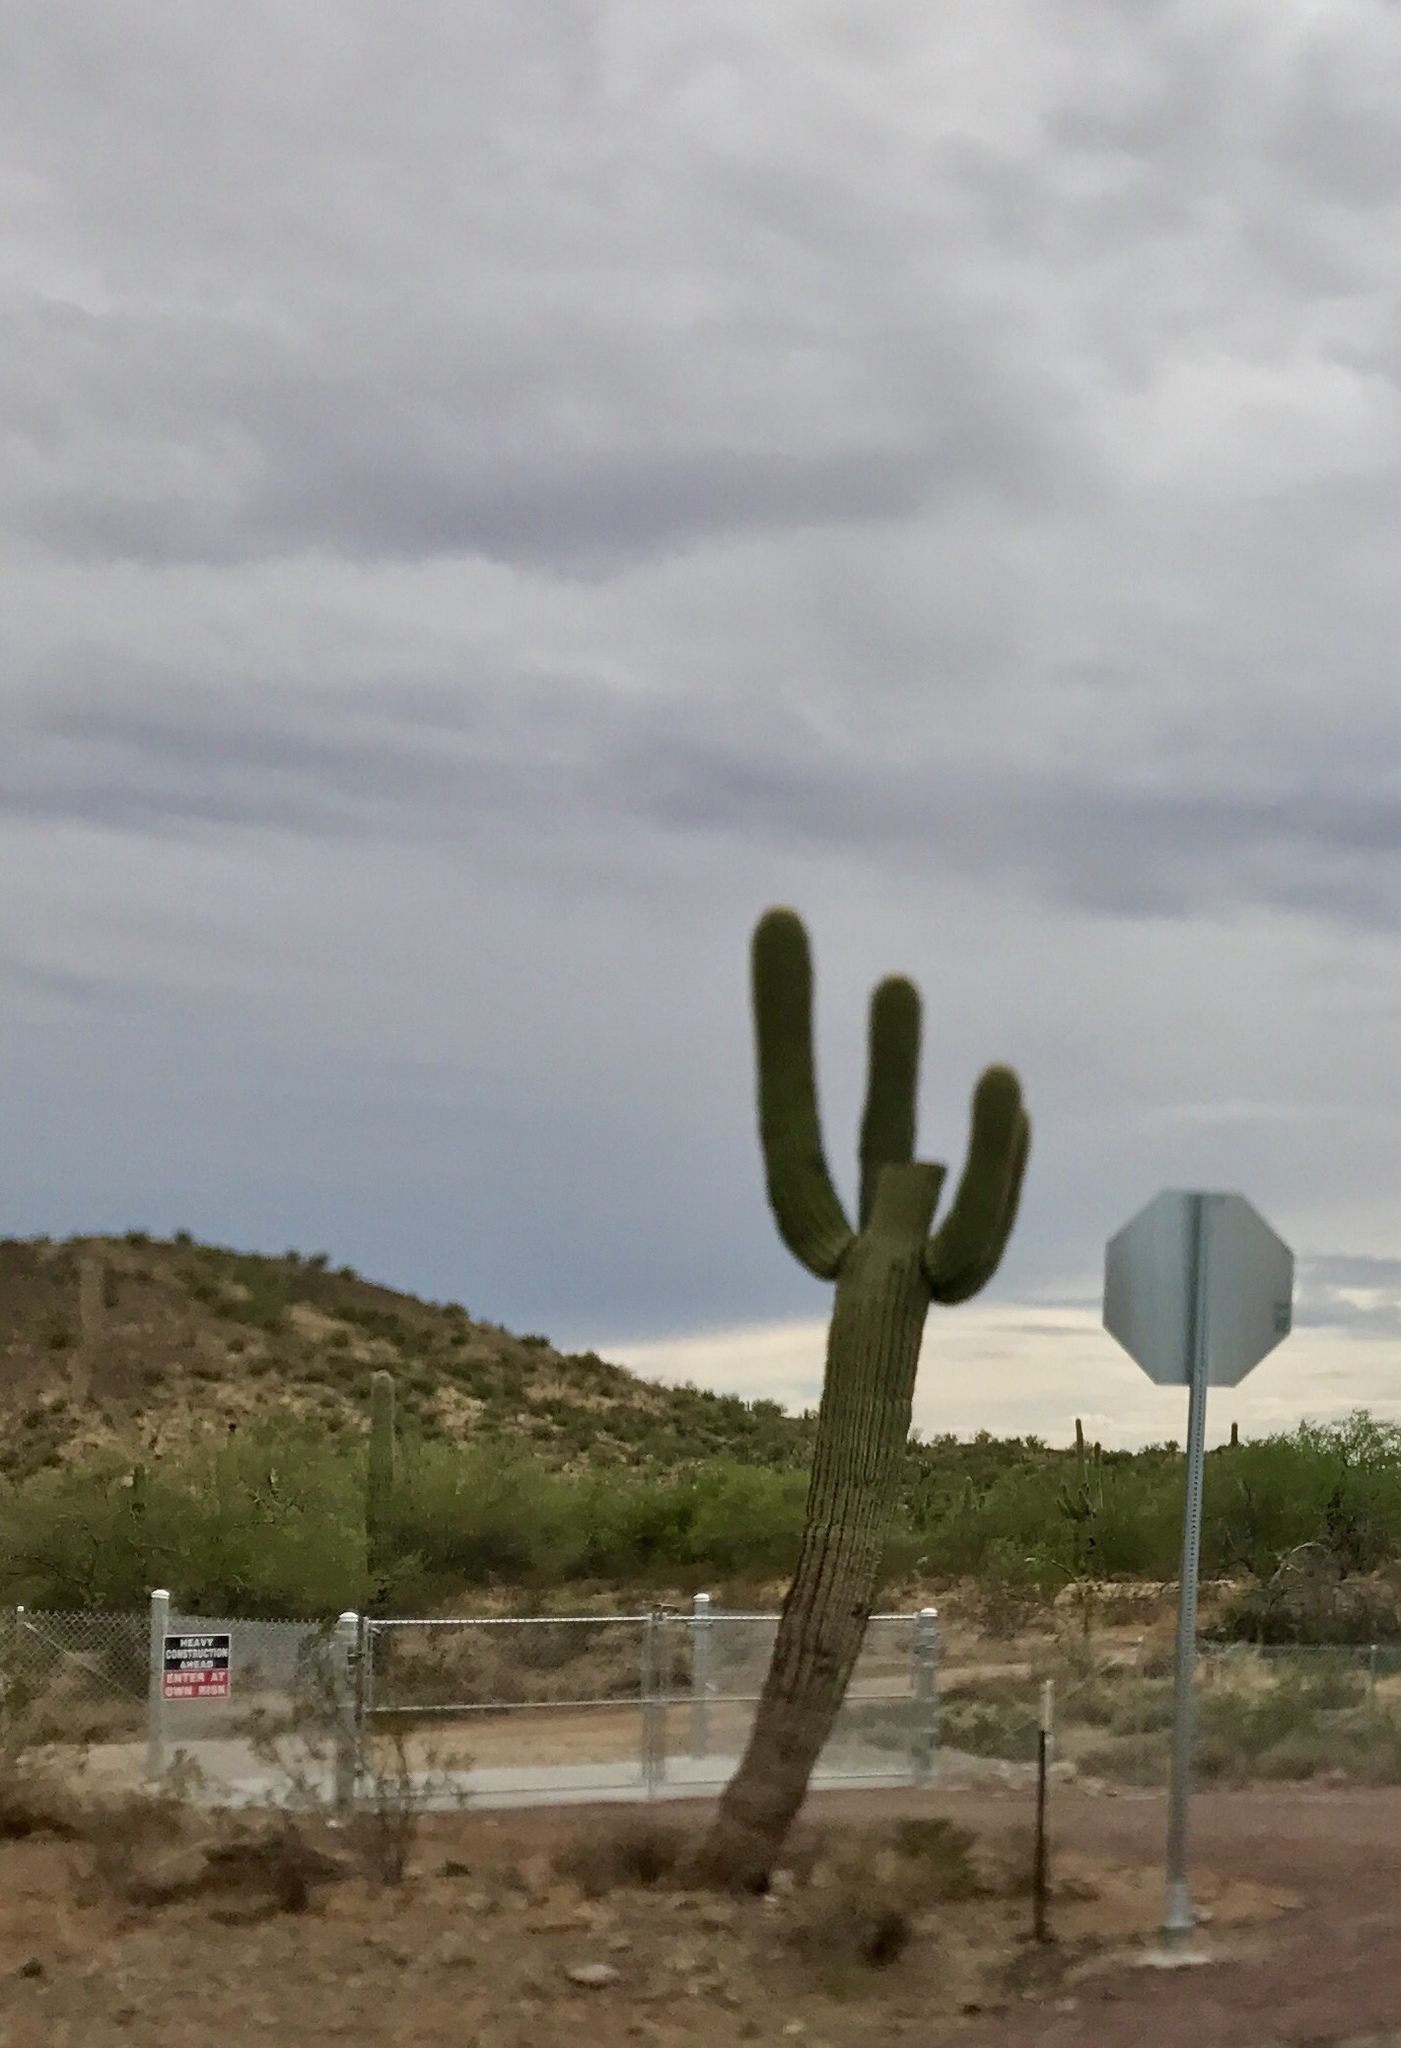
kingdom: Plantae
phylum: Tracheophyta
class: Magnoliopsida
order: Caryophyllales
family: Cactaceae
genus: Carnegiea
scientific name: Carnegiea gigantea
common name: Saguaro
